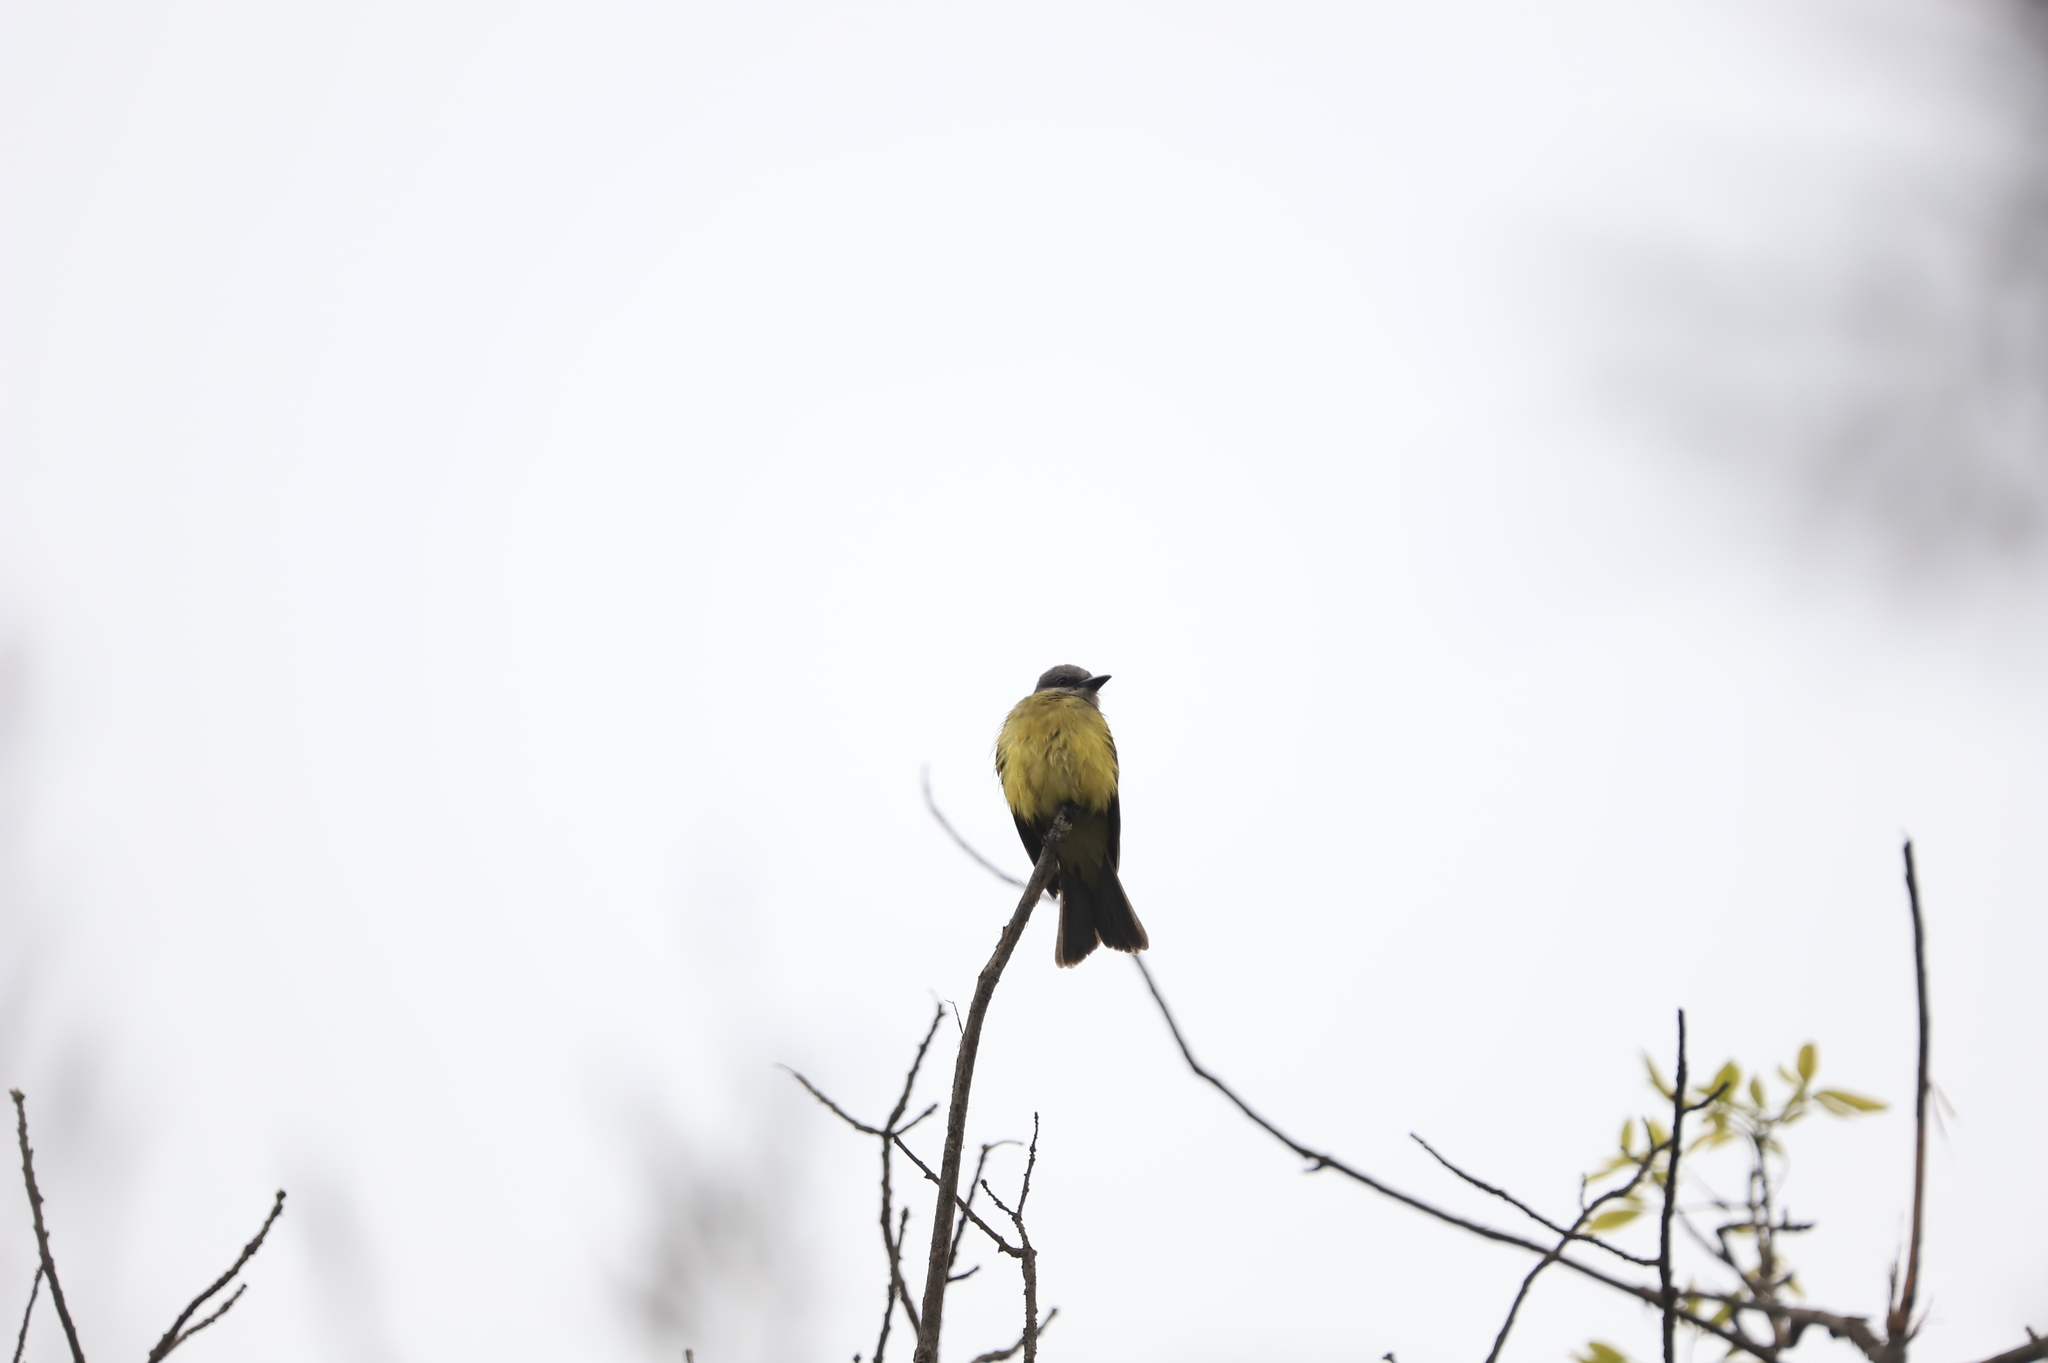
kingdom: Animalia
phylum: Chordata
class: Aves
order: Passeriformes
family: Tyrannidae
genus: Tyrannus
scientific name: Tyrannus melancholicus
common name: Tropical kingbird
